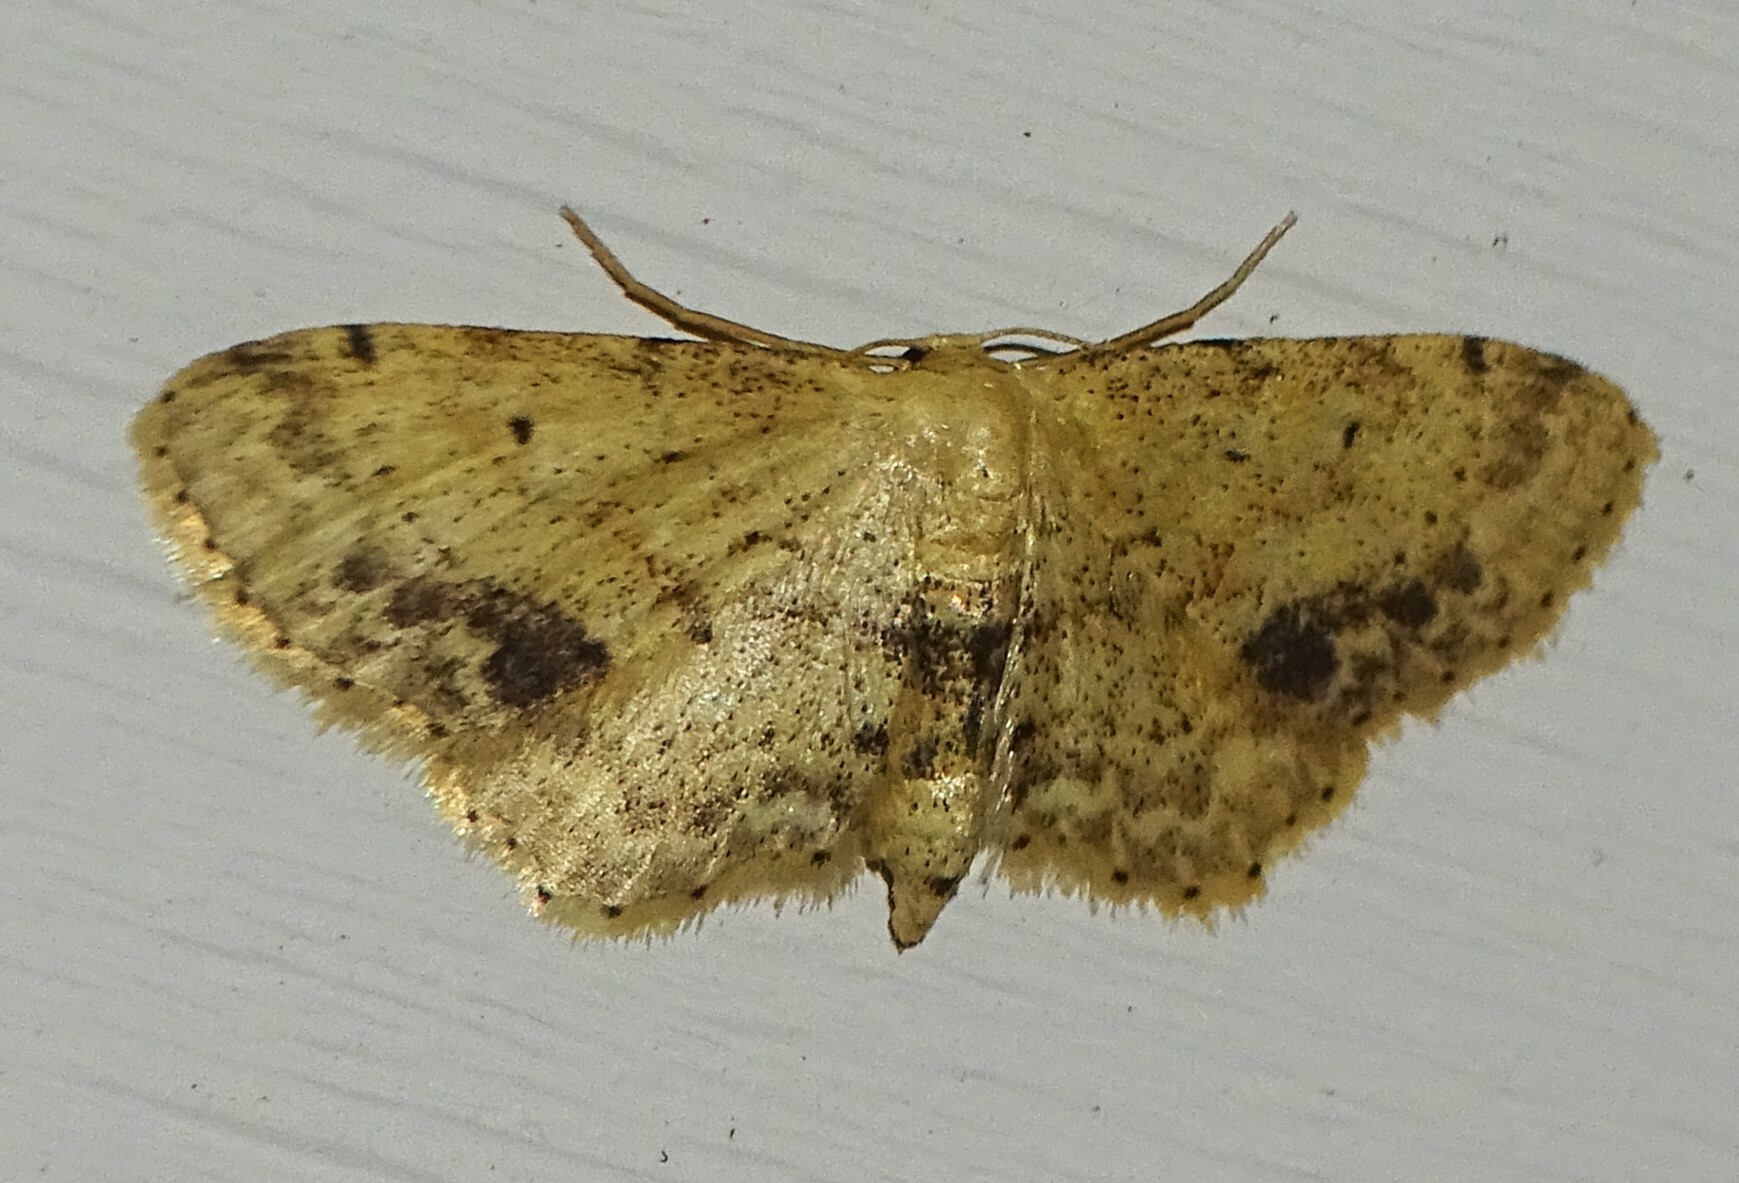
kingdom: Animalia
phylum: Arthropoda
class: Insecta
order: Lepidoptera
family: Geometridae
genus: Idaea
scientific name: Idaea dimidiata
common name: Single-dotted wave
